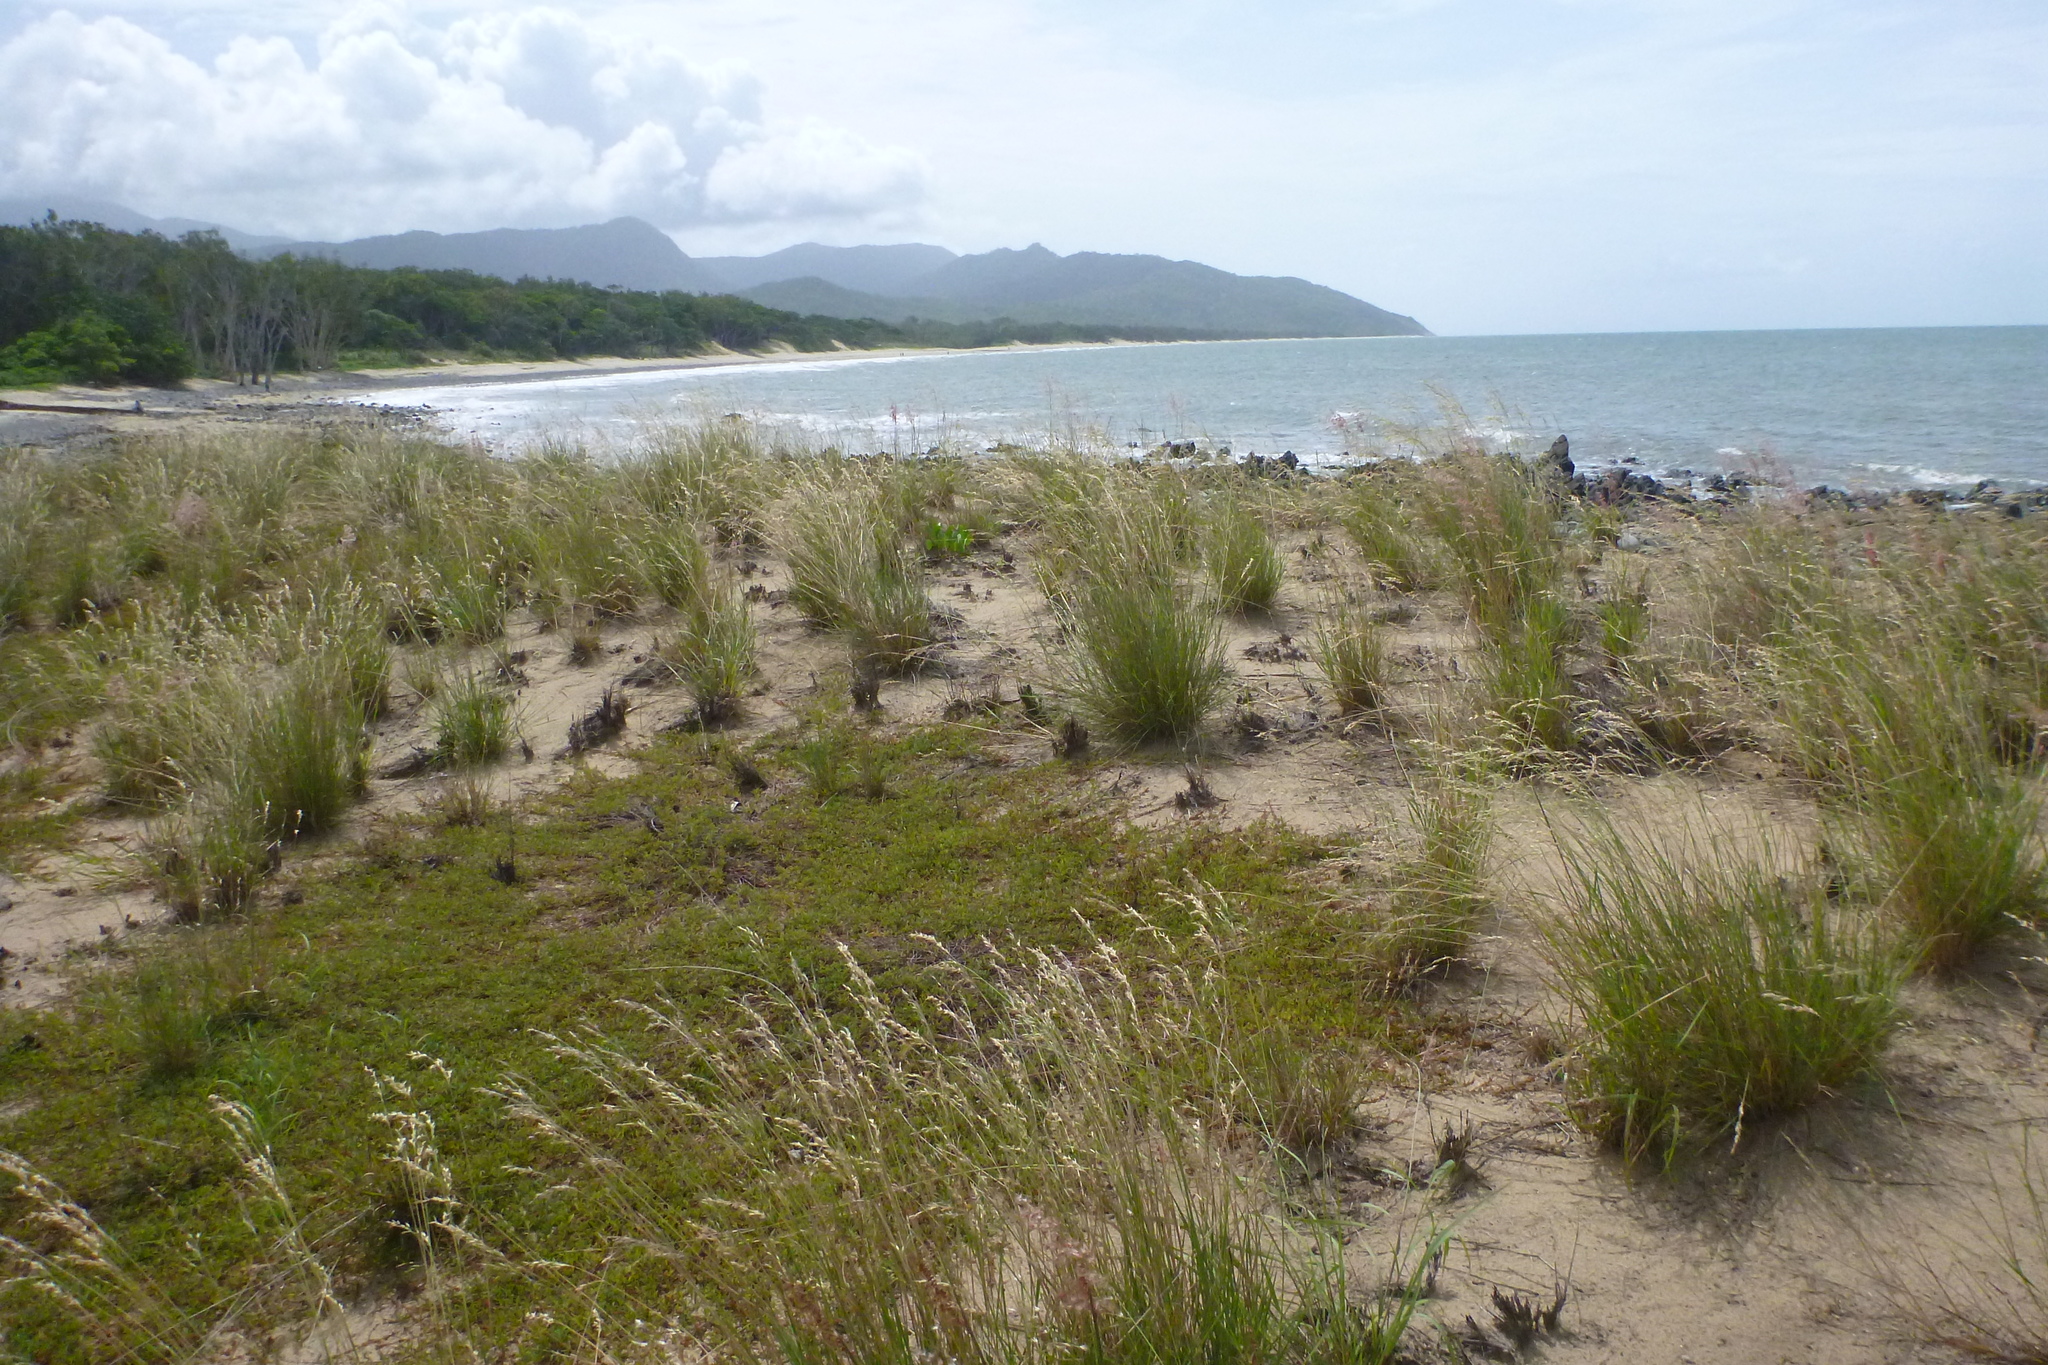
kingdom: Plantae
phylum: Tracheophyta
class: Magnoliopsida
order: Fabales
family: Fabaceae
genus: Aphyllodium
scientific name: Aphyllodium biarticulatum
